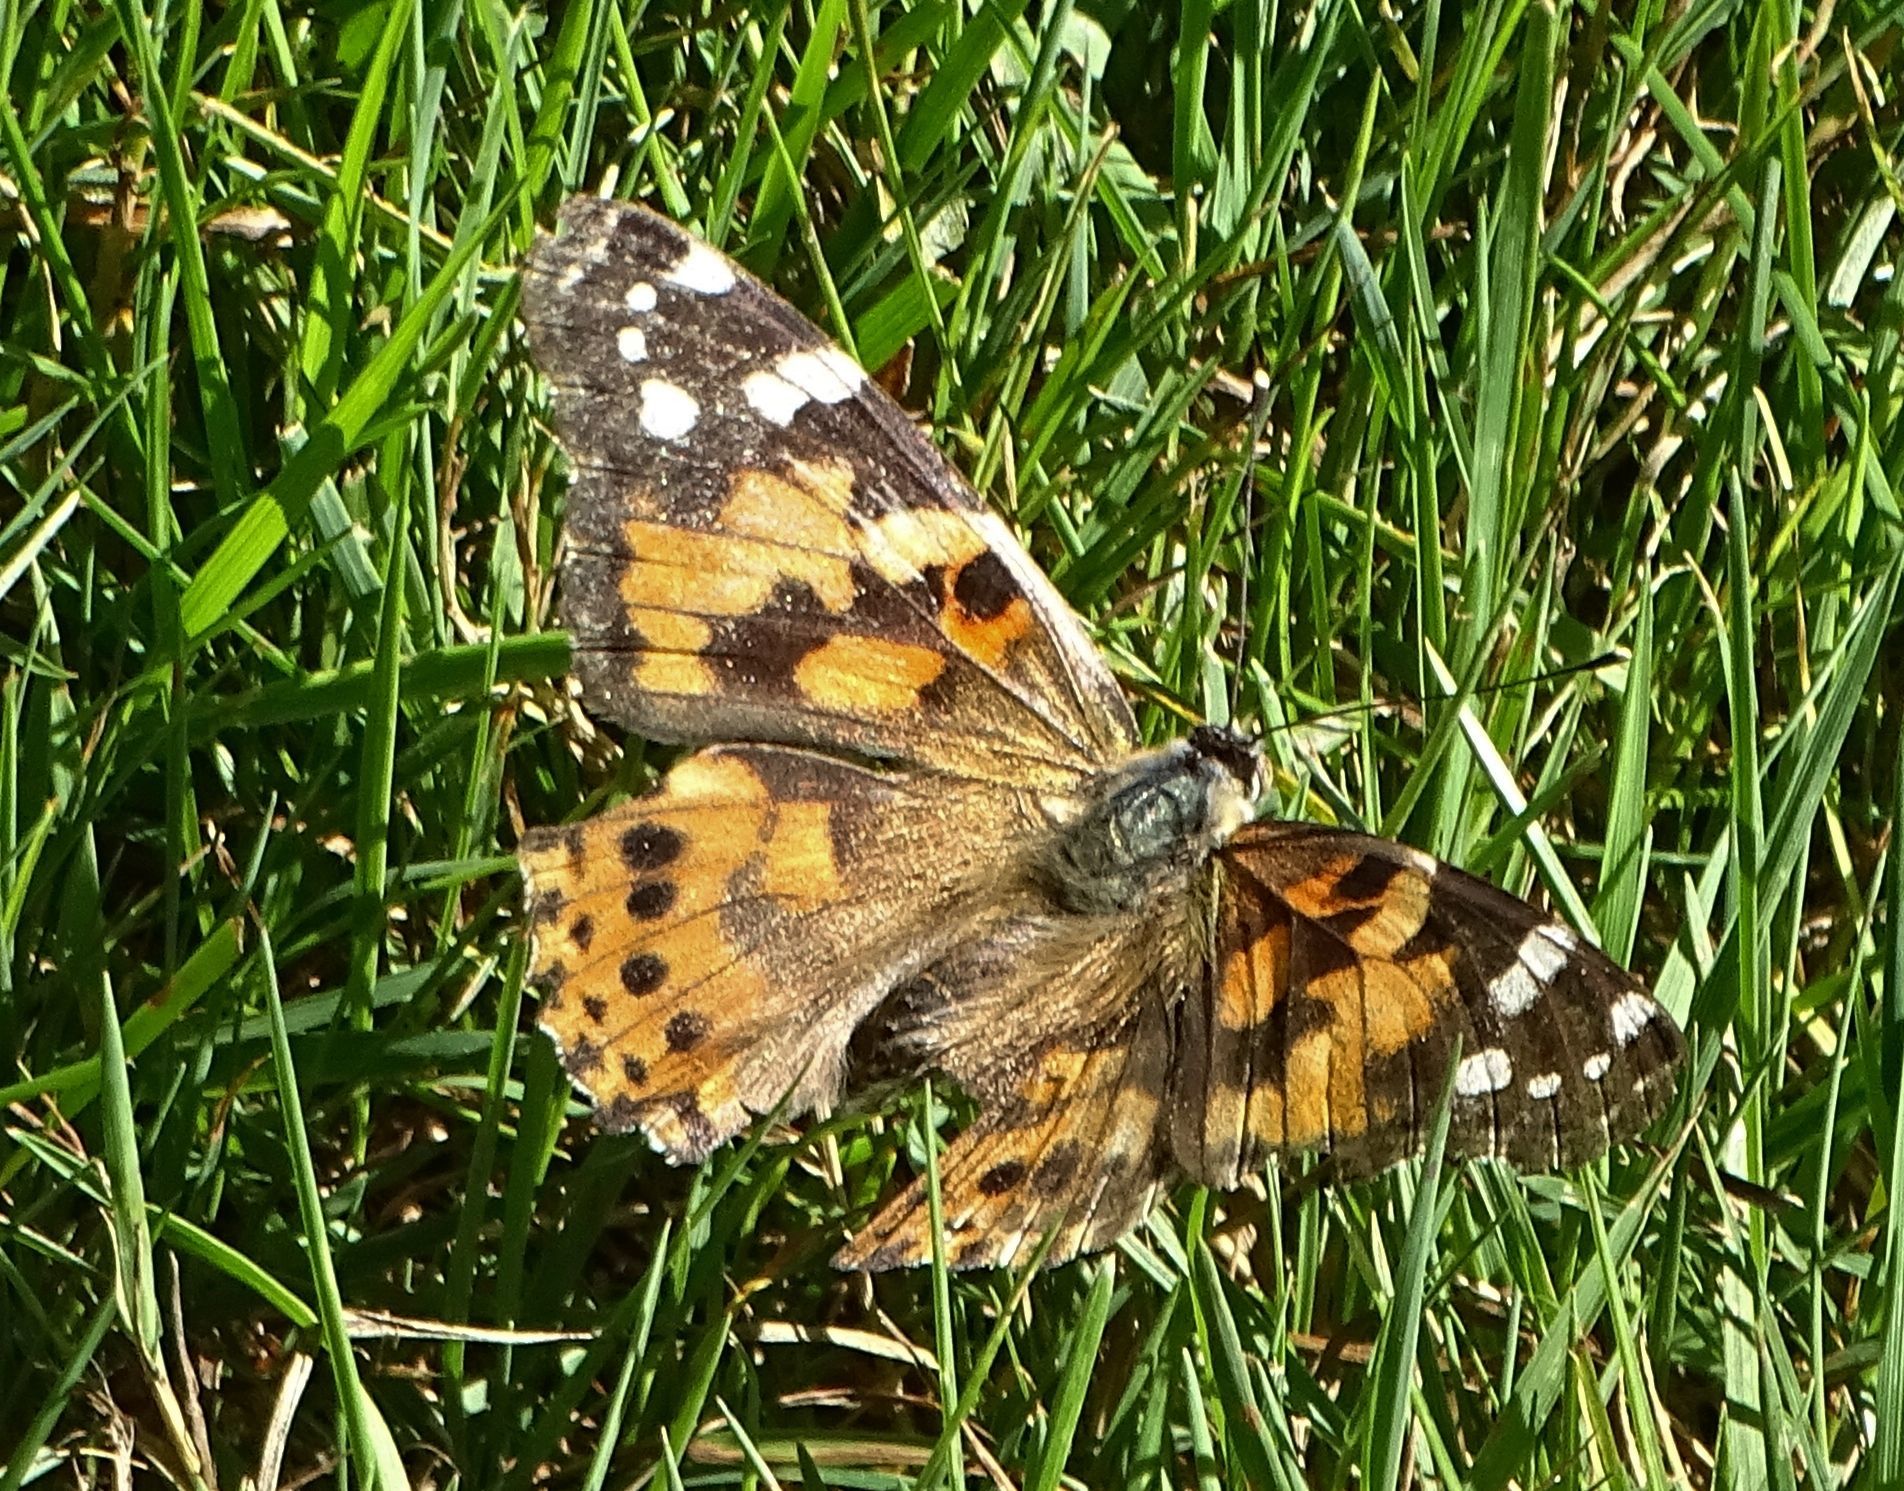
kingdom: Animalia
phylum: Arthropoda
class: Insecta
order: Lepidoptera
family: Nymphalidae
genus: Vanessa
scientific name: Vanessa cardui
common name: Painted lady
